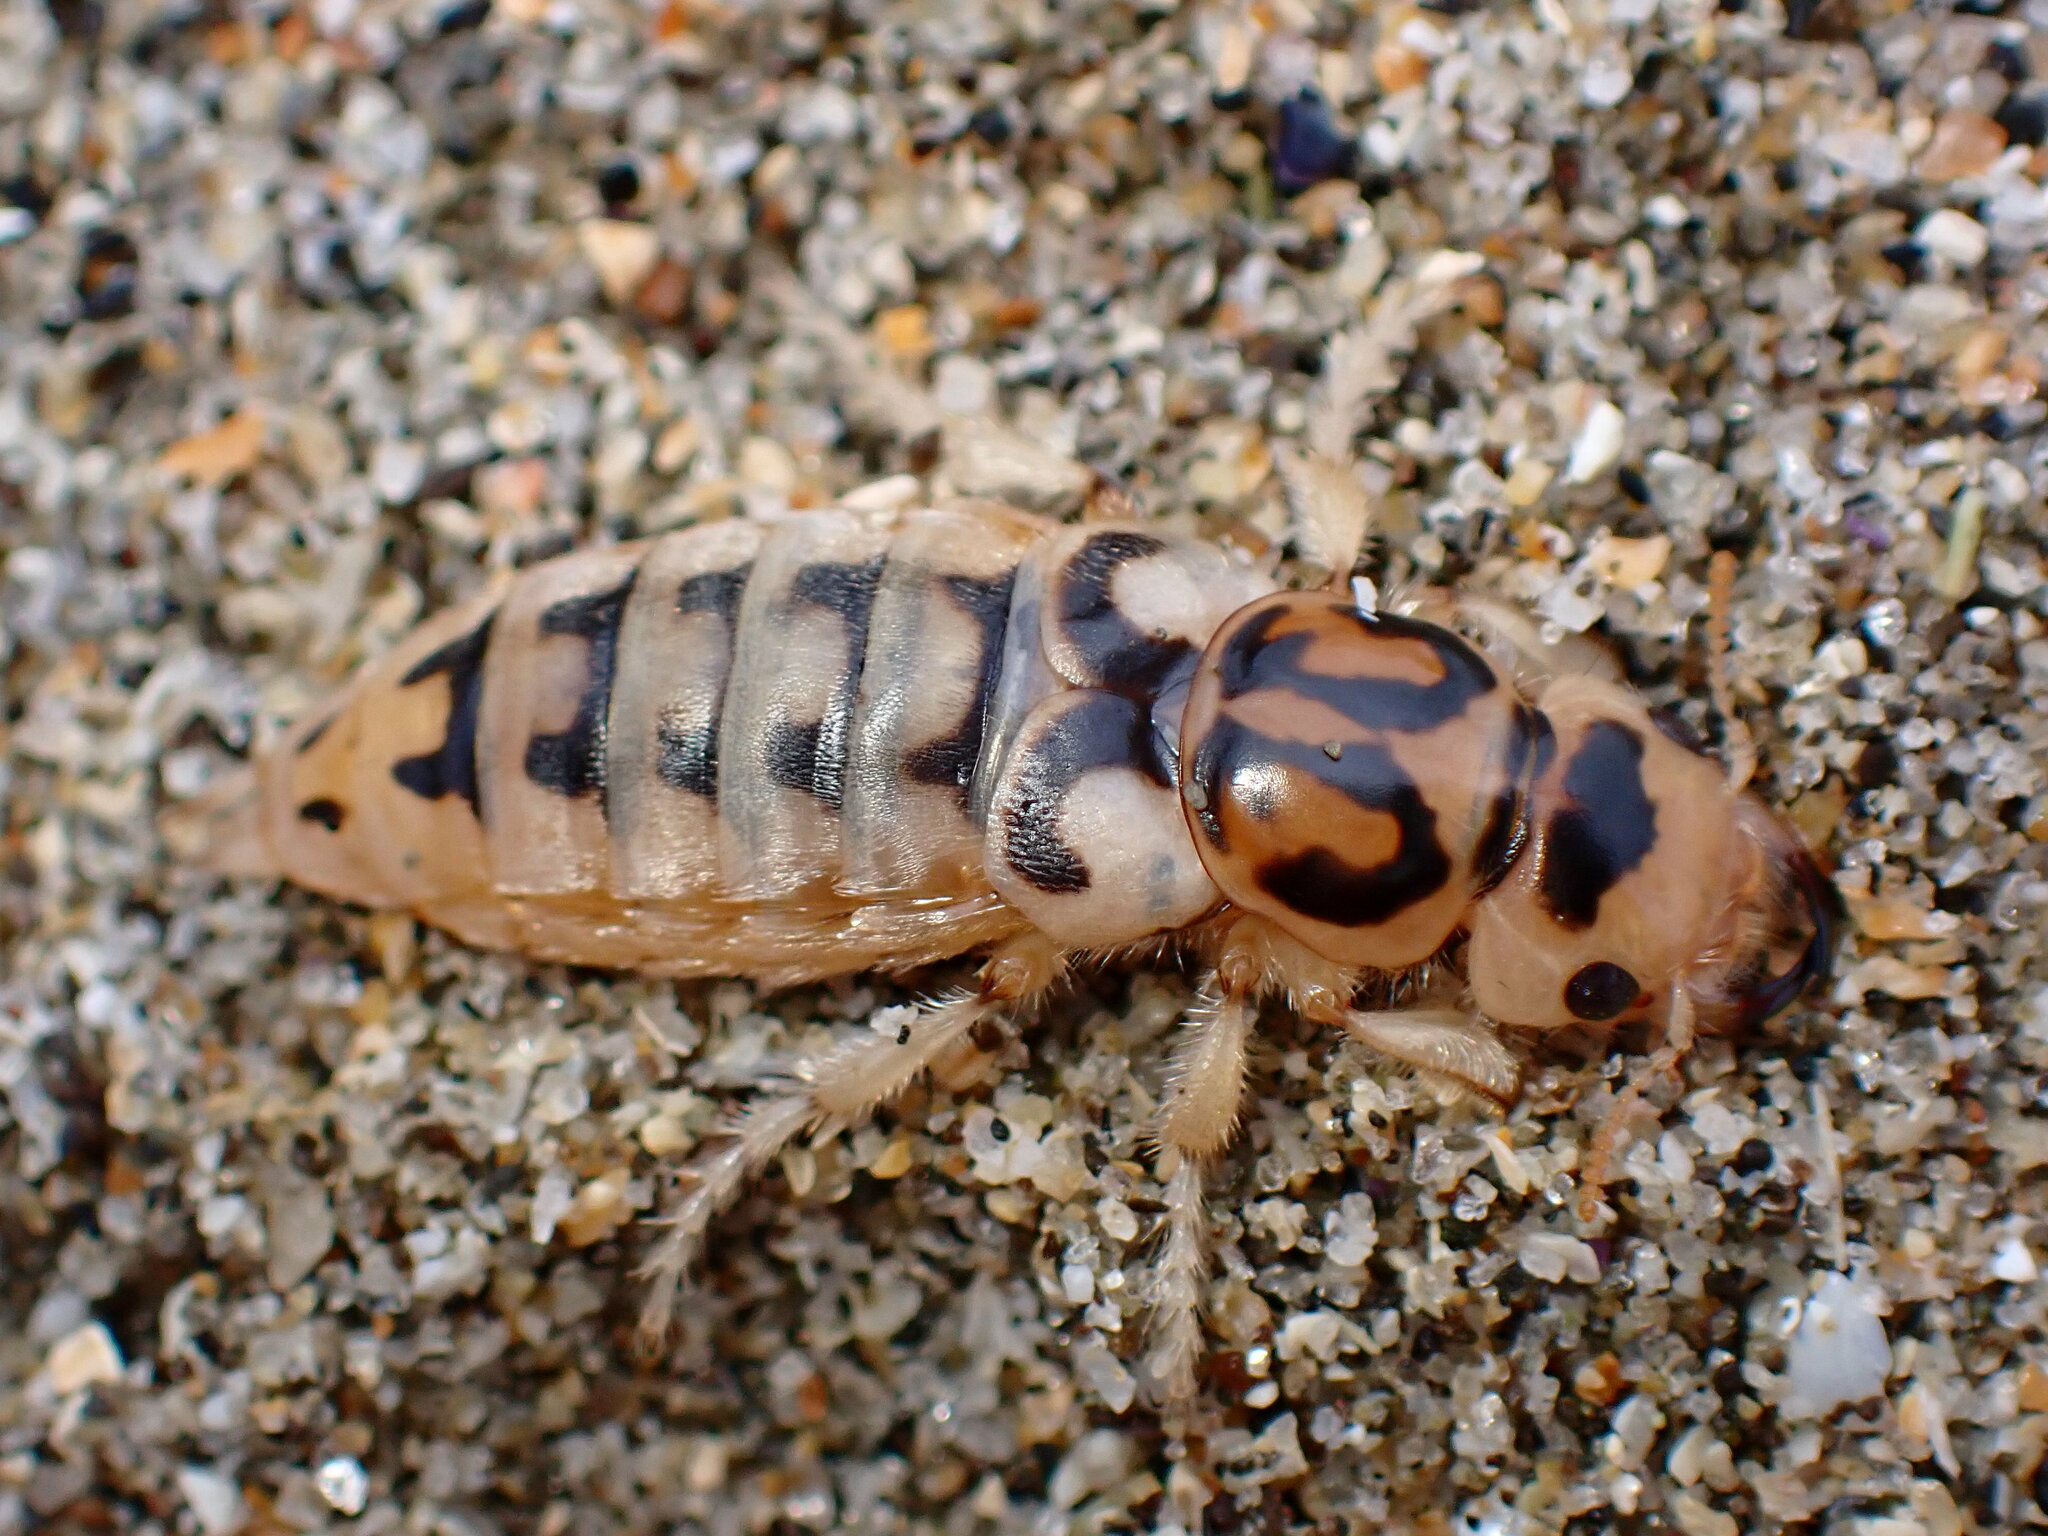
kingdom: Animalia
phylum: Arthropoda
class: Insecta
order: Coleoptera
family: Staphylinidae
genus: Thinopinus
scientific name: Thinopinus pictus
